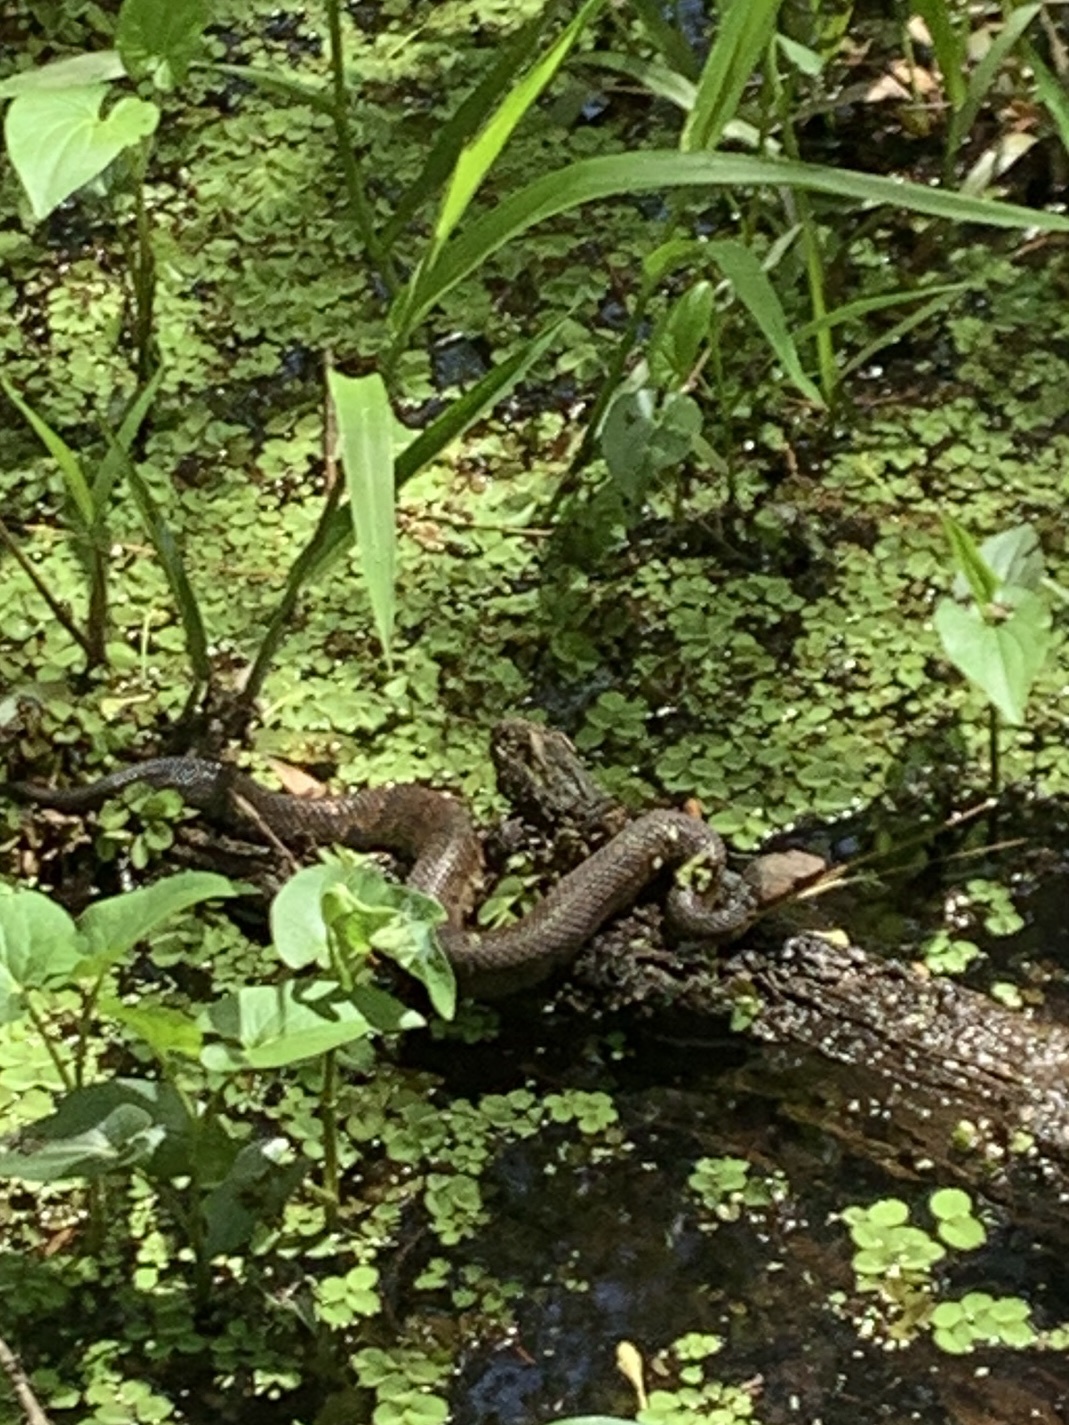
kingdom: Animalia
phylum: Chordata
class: Squamata
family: Viperidae
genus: Agkistrodon
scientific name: Agkistrodon piscivorus
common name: Cottonmouth
